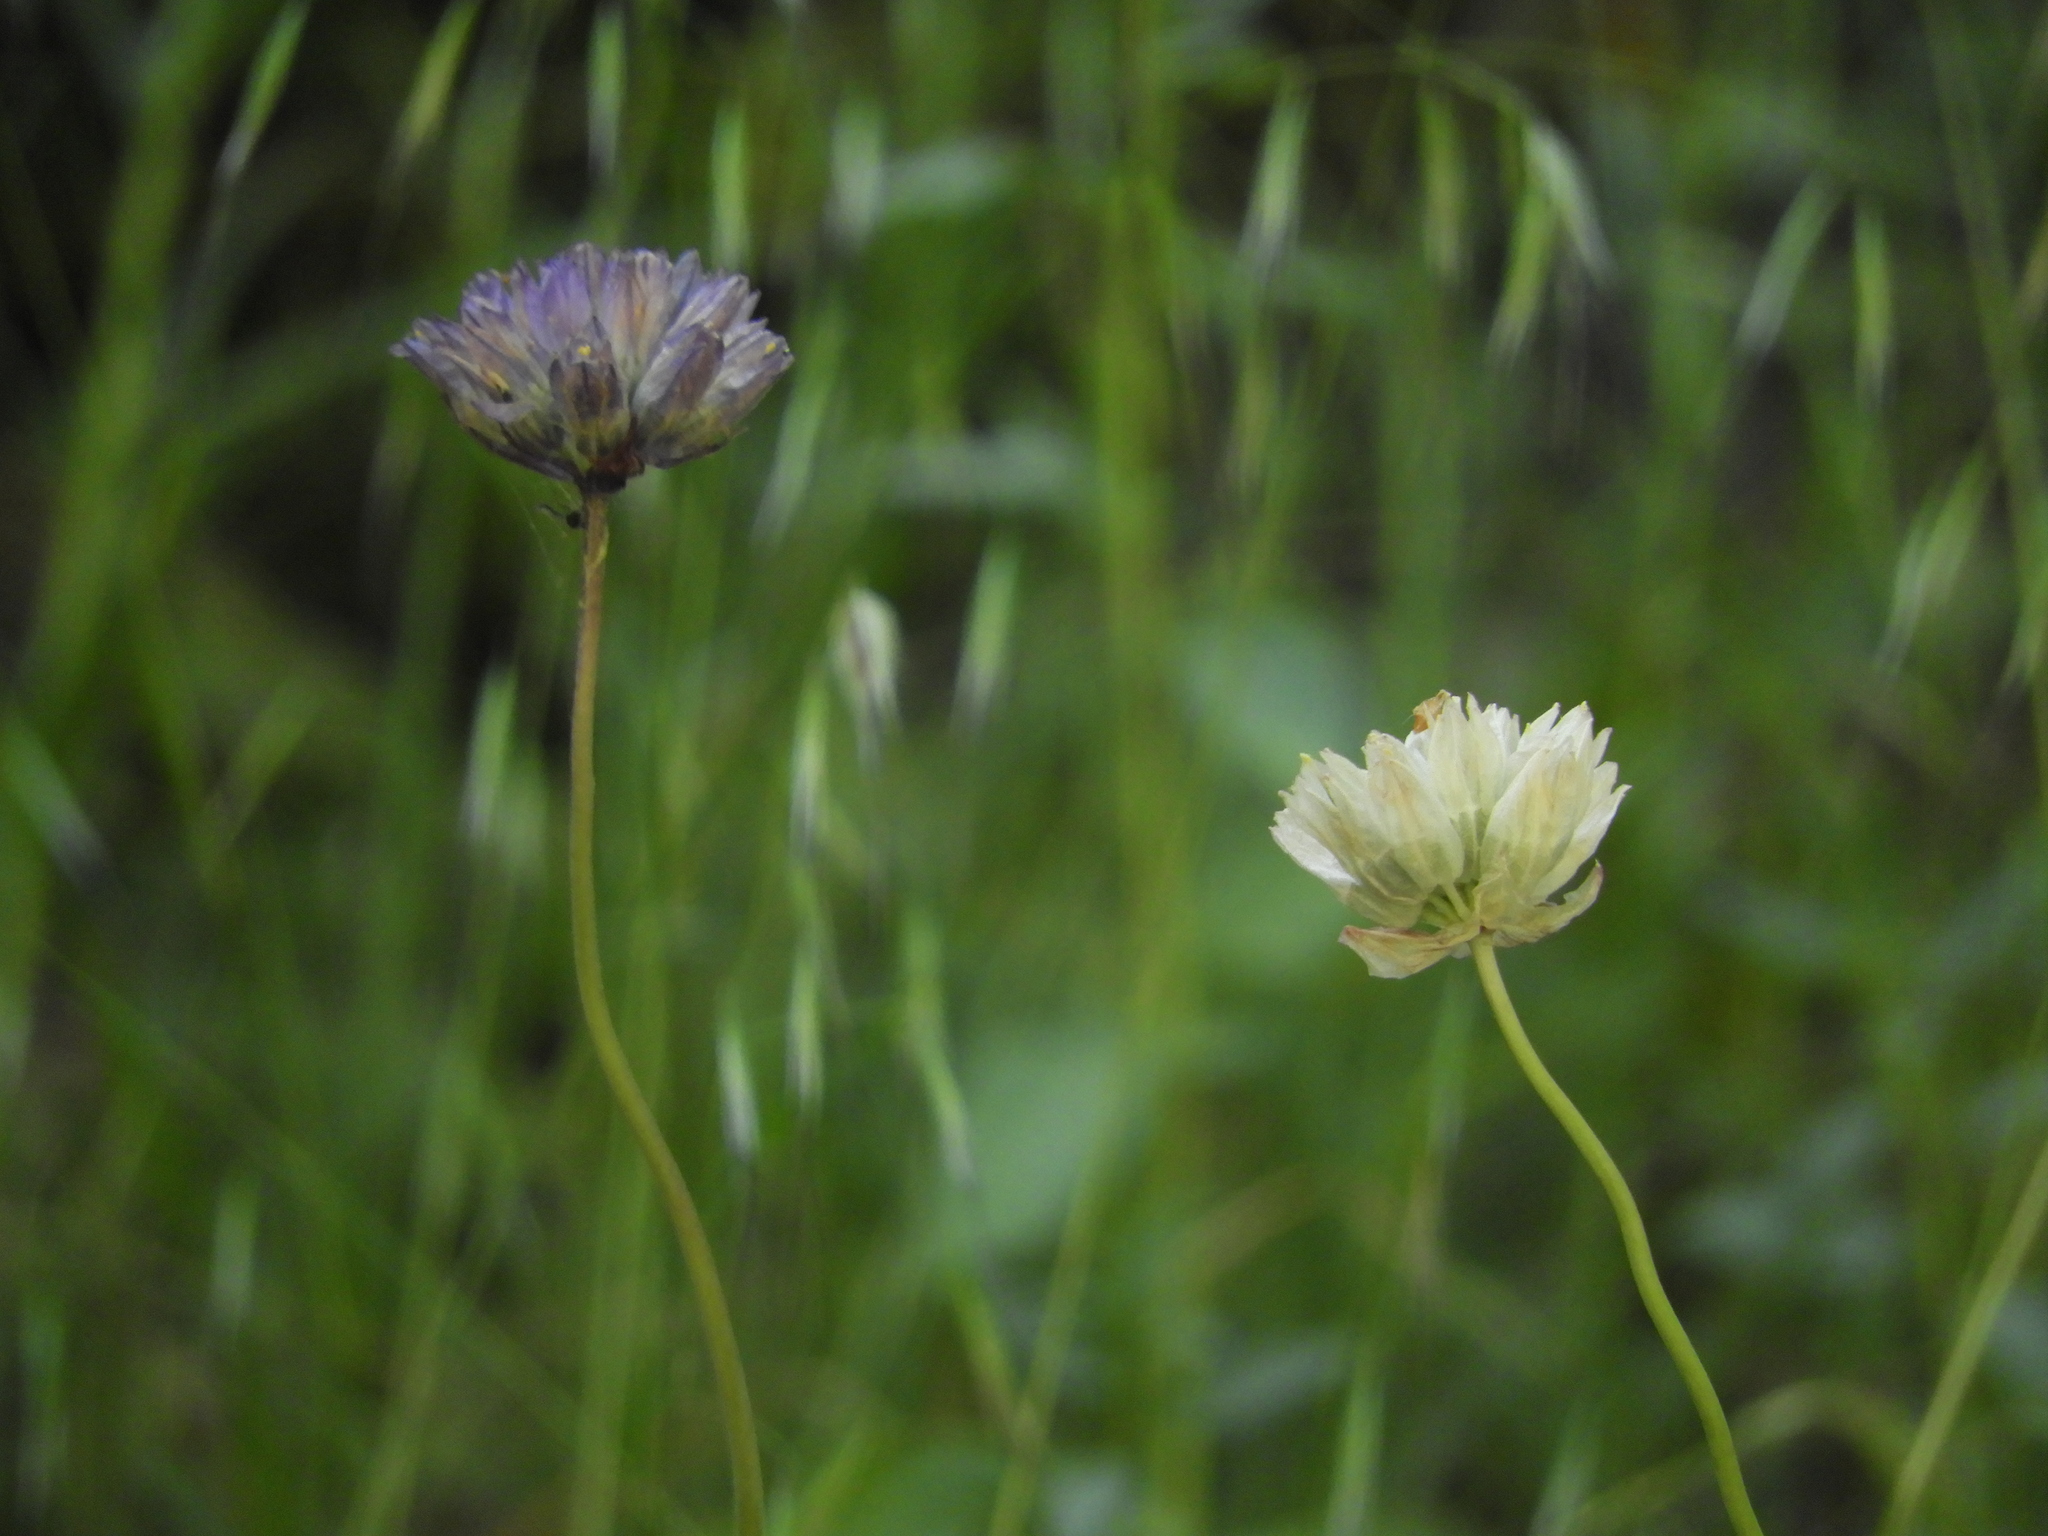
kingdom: Plantae
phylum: Tracheophyta
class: Liliopsida
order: Asparagales
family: Asparagaceae
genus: Dipterostemon
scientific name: Dipterostemon capitatus
